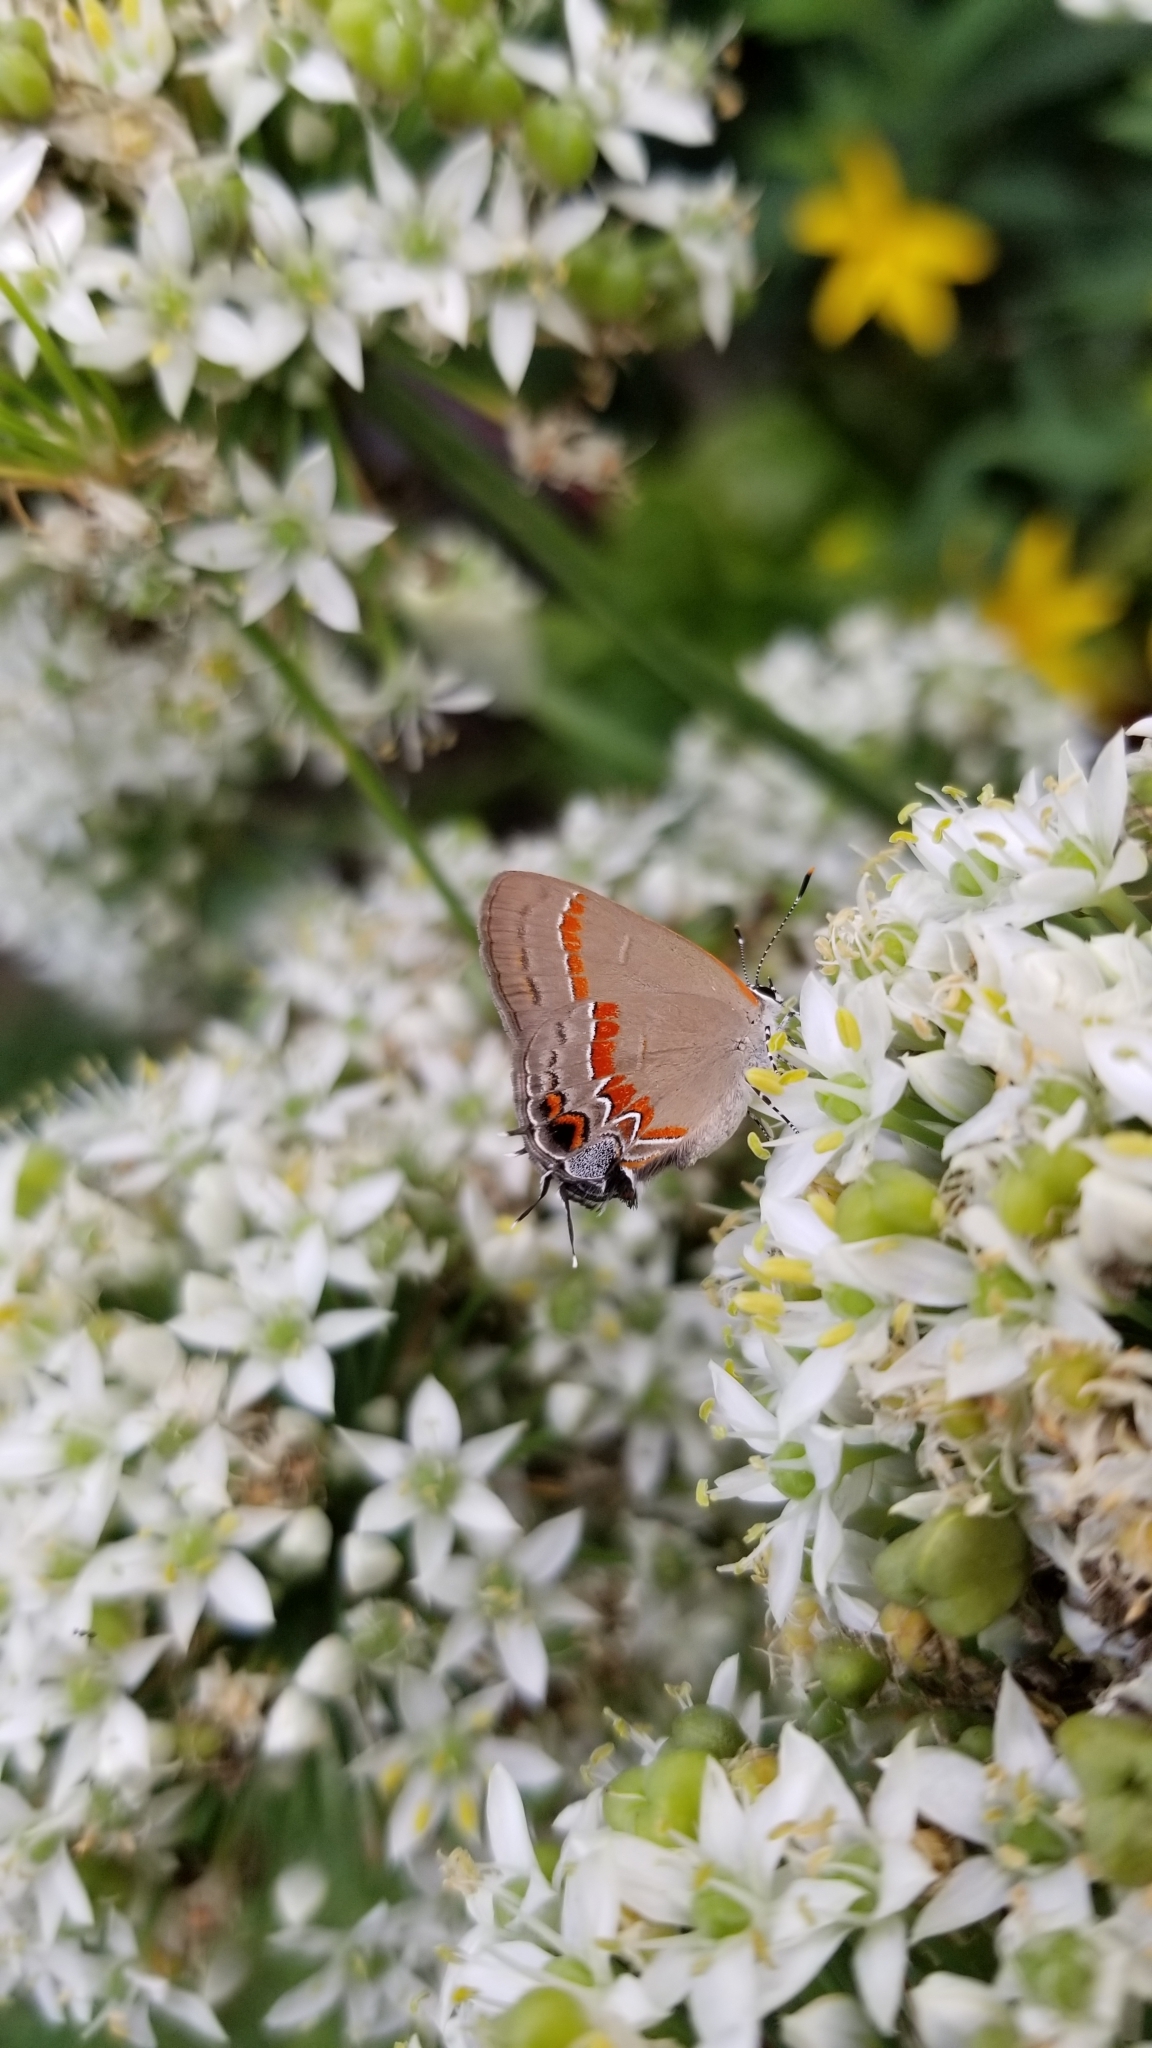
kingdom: Animalia
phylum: Arthropoda
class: Insecta
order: Lepidoptera
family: Lycaenidae
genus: Calycopis
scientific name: Calycopis cecrops
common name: Red-banded hairstreak
